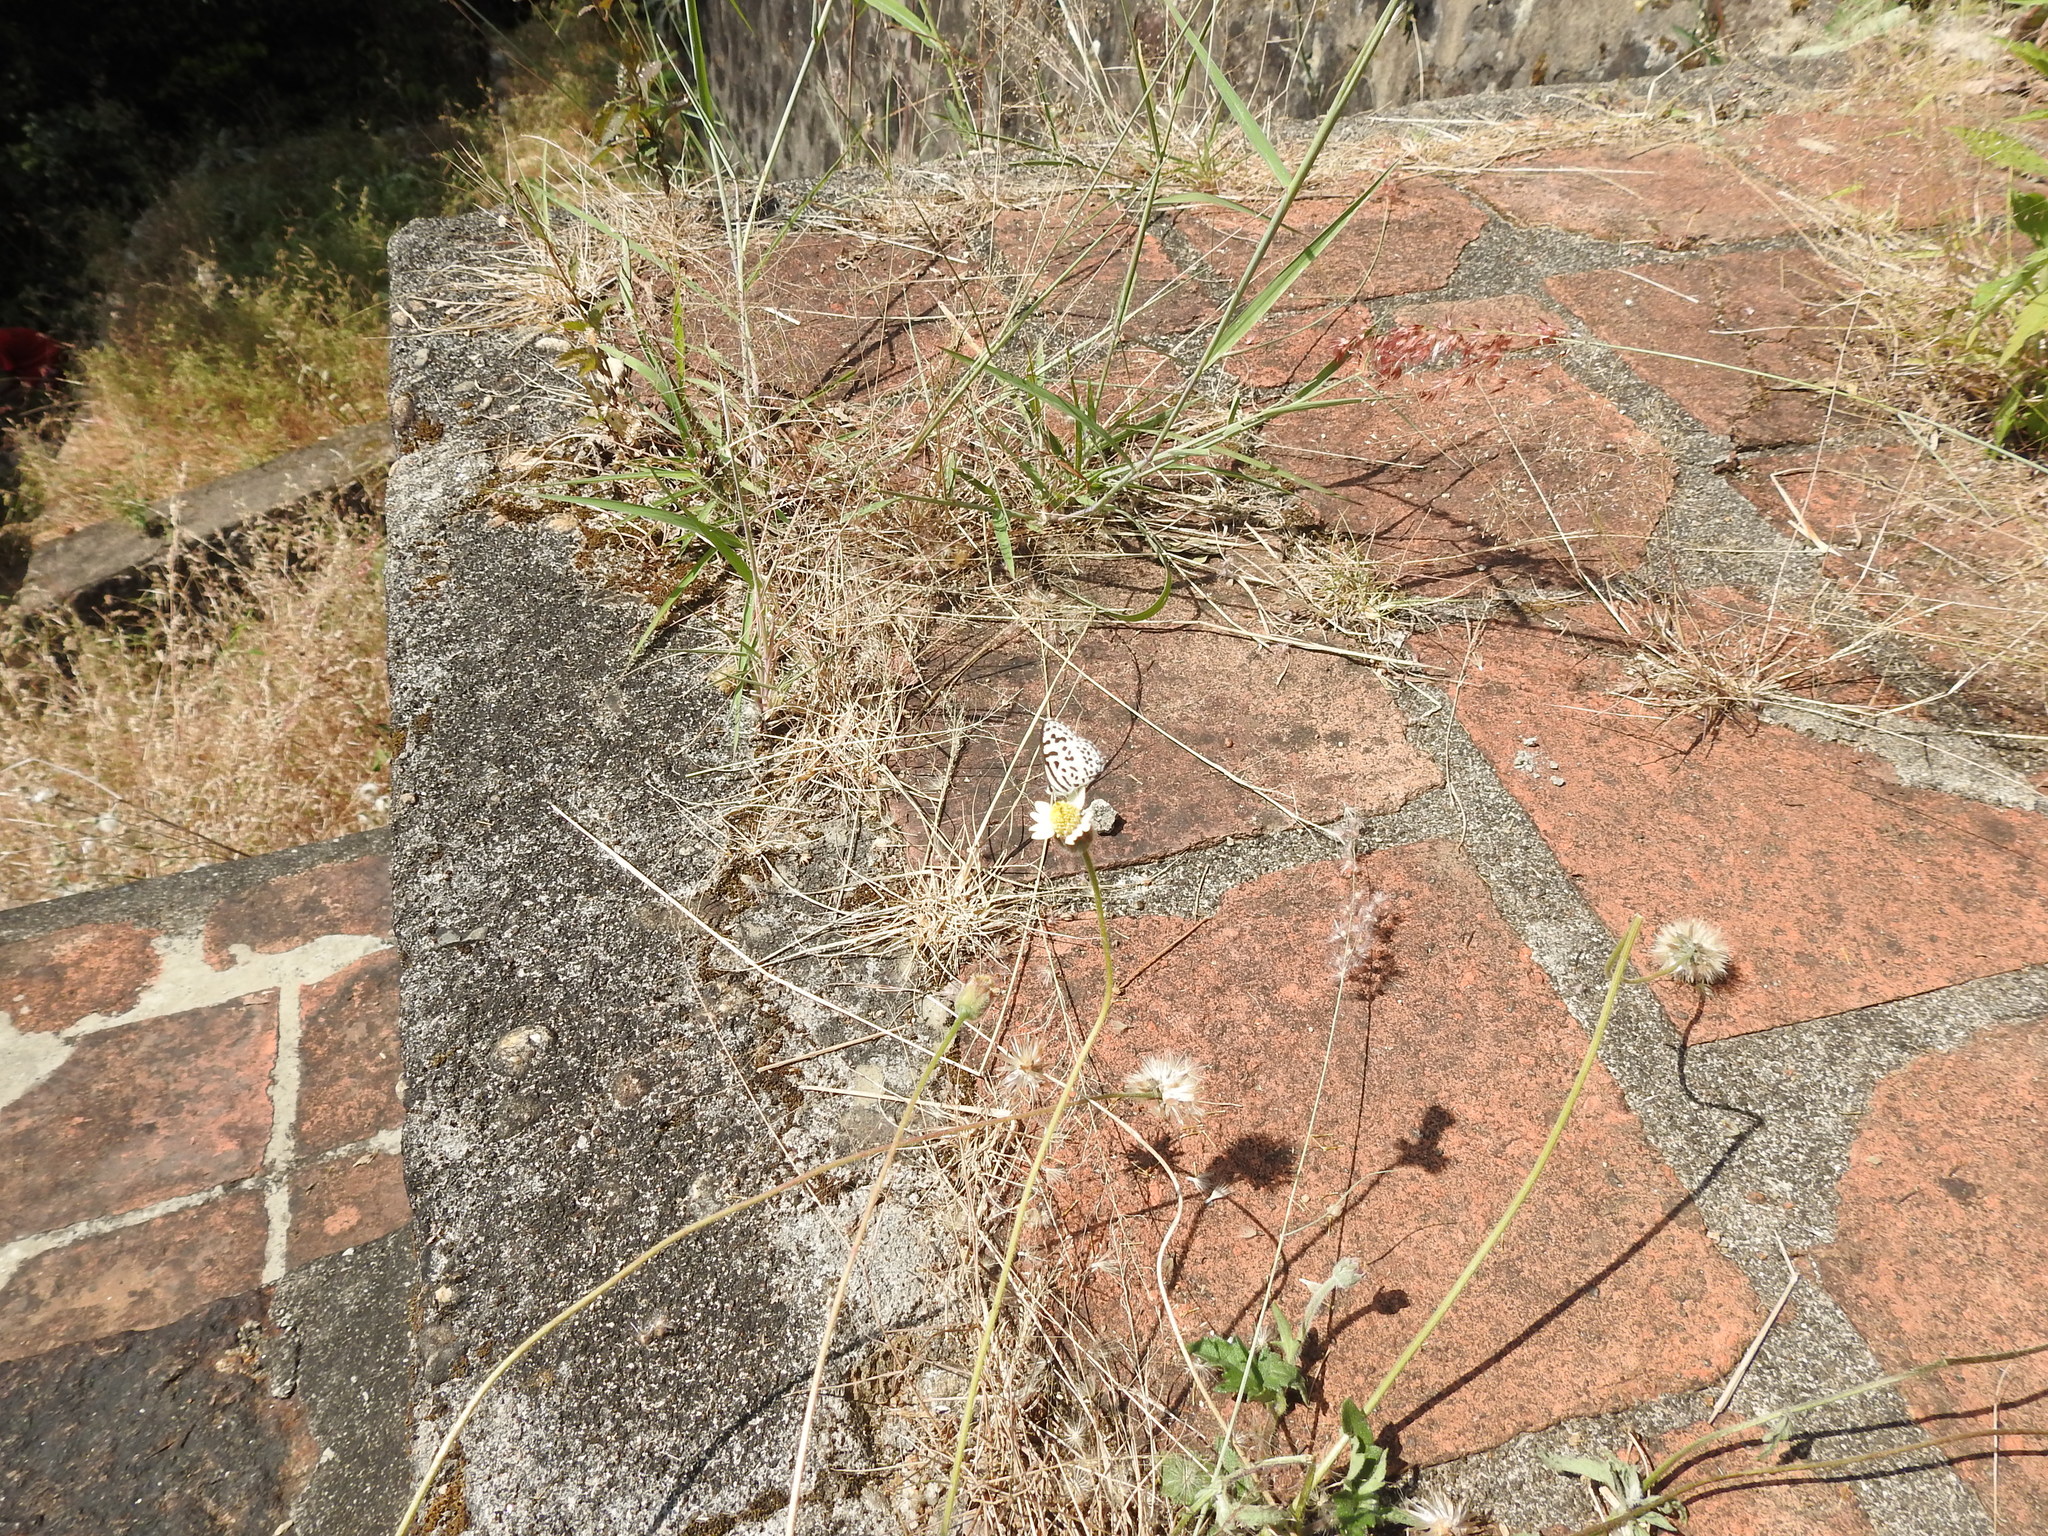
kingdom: Animalia
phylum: Arthropoda
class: Insecta
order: Lepidoptera
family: Lycaenidae
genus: Castalius
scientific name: Castalius rosimon
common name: Common pierrot
